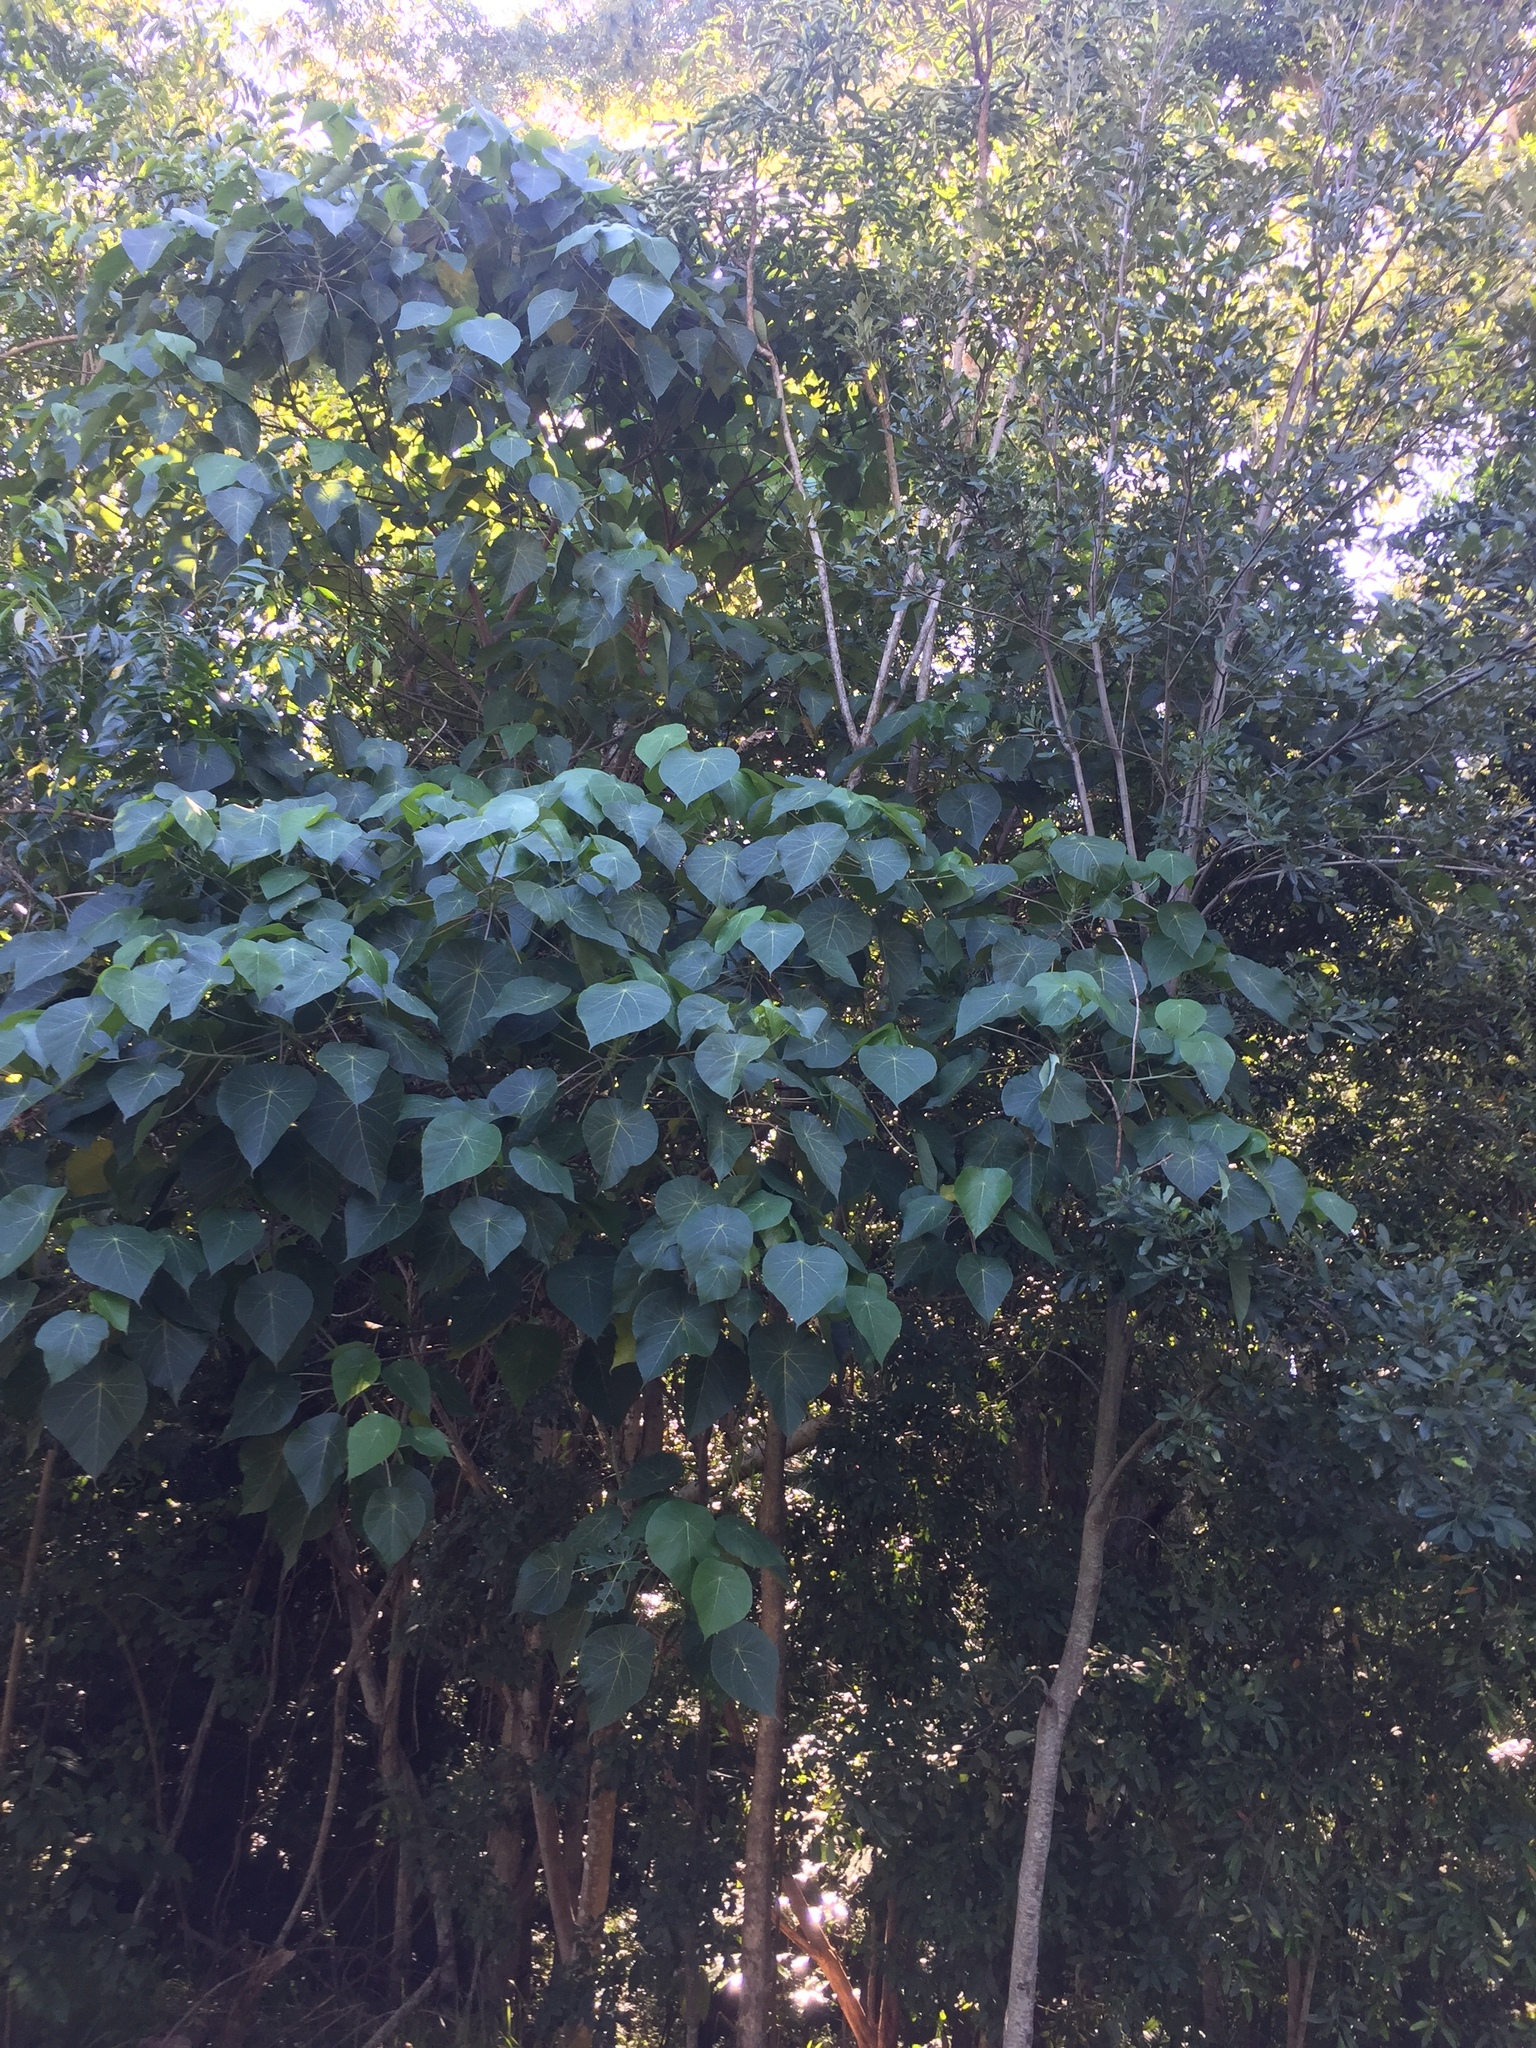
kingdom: Plantae
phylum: Tracheophyta
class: Magnoliopsida
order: Malpighiales
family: Euphorbiaceae
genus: Macaranga
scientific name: Macaranga tanarius
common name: Parasol leaf tree
